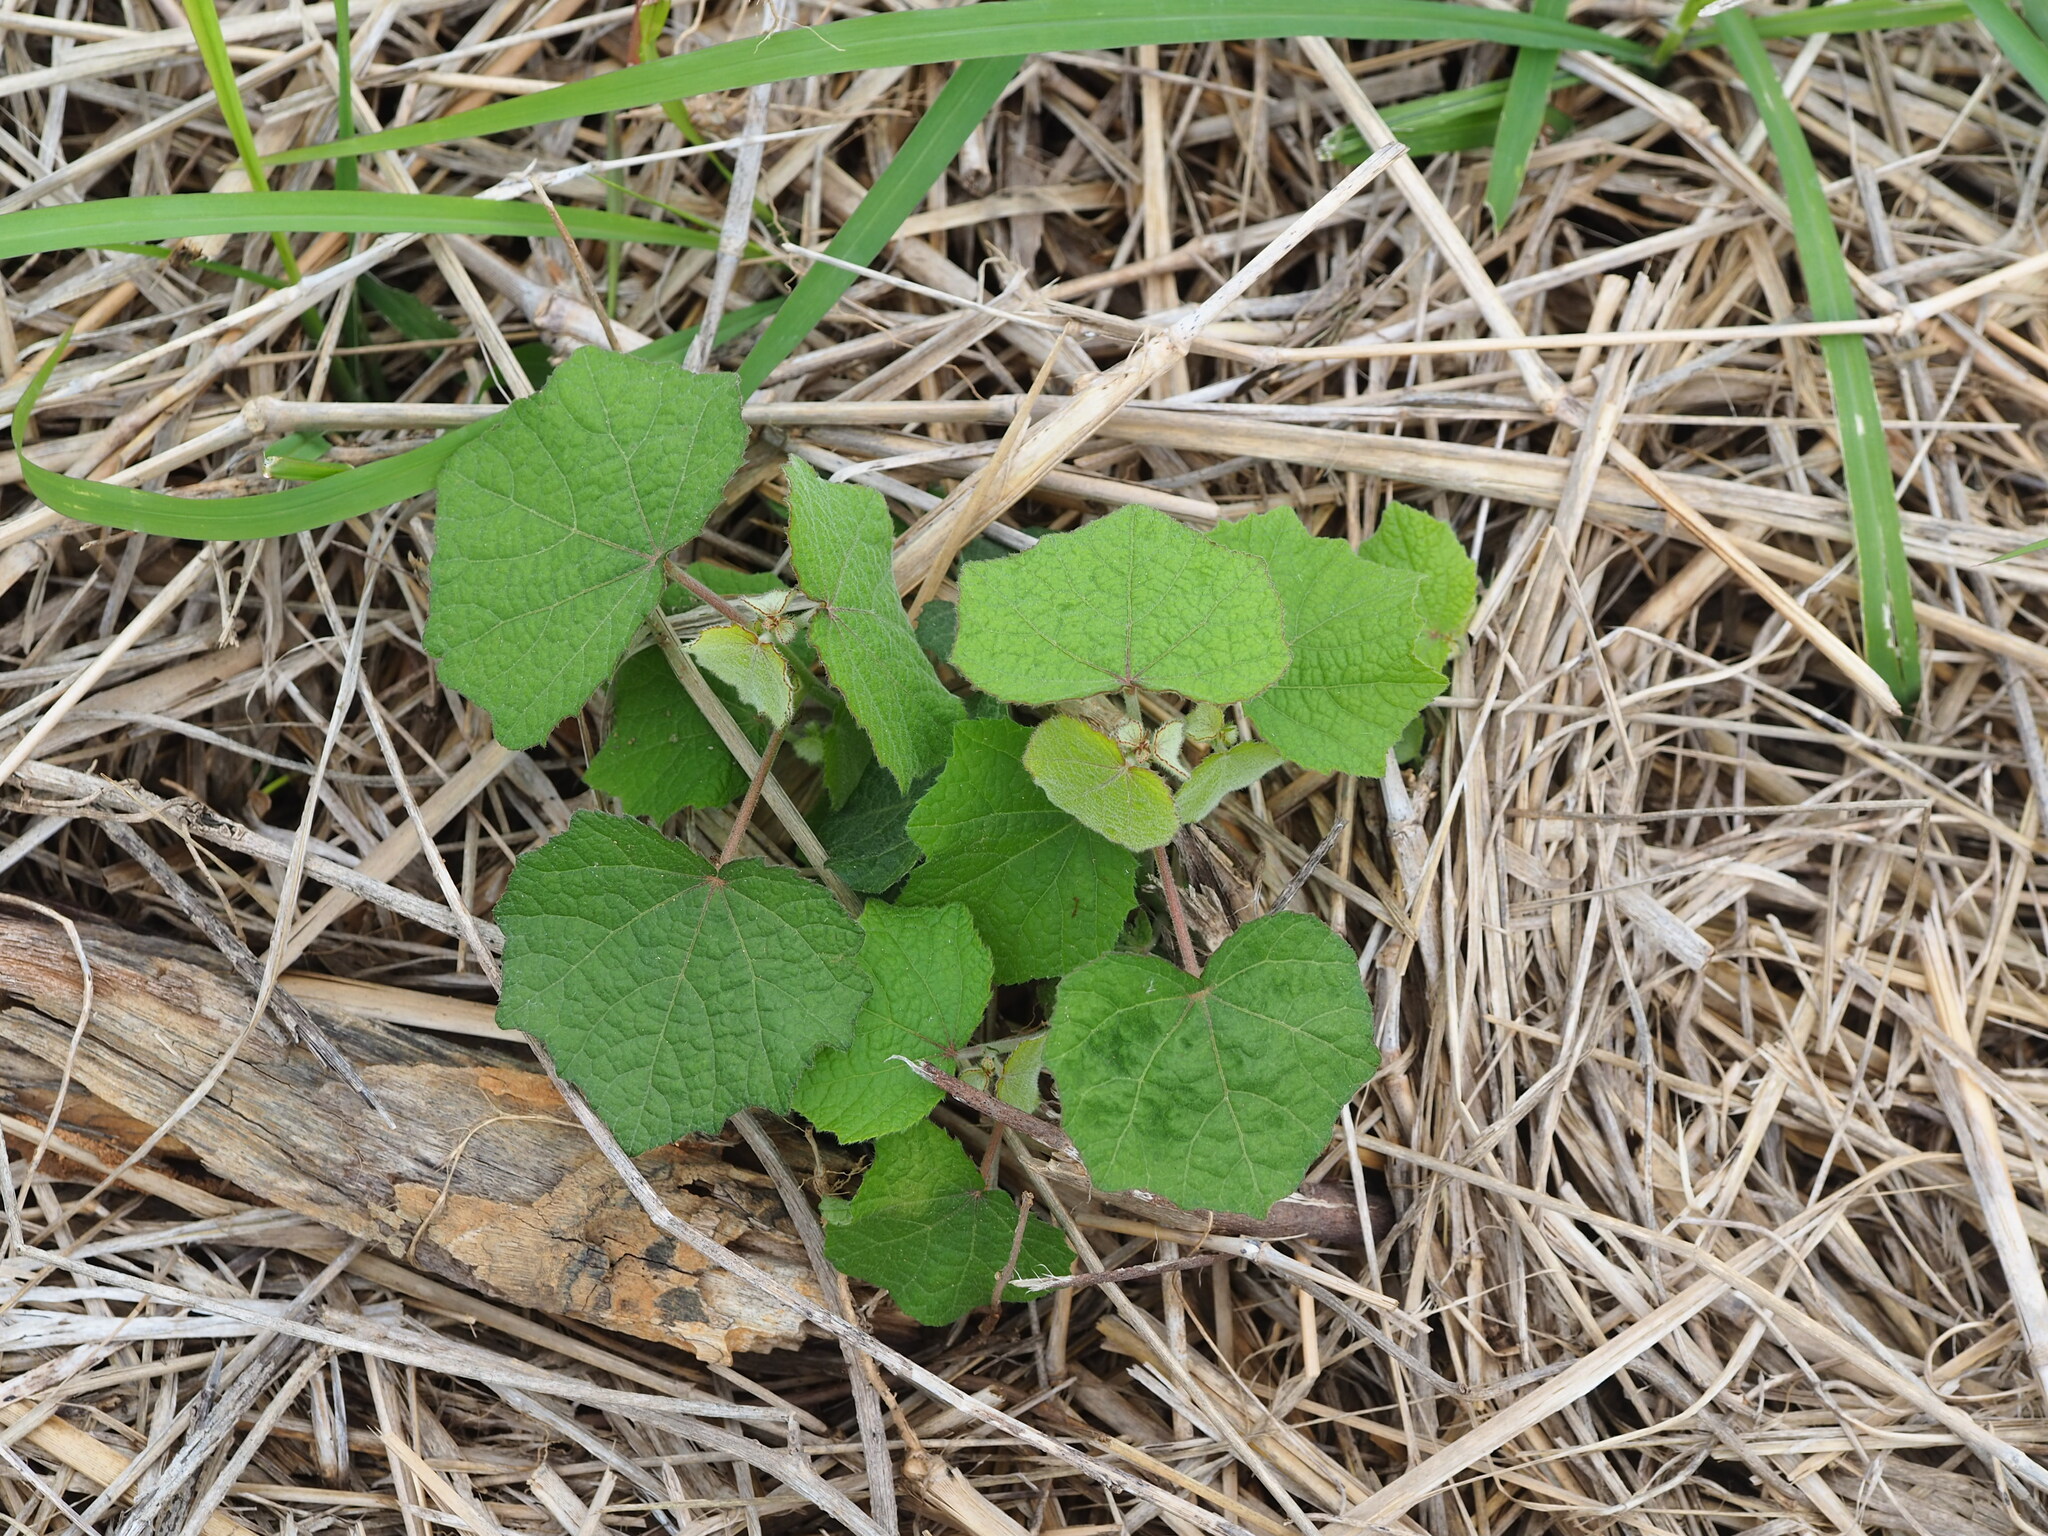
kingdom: Plantae
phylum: Tracheophyta
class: Magnoliopsida
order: Malvales
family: Malvaceae
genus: Urena
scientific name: Urena lobata
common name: Caesarweed
